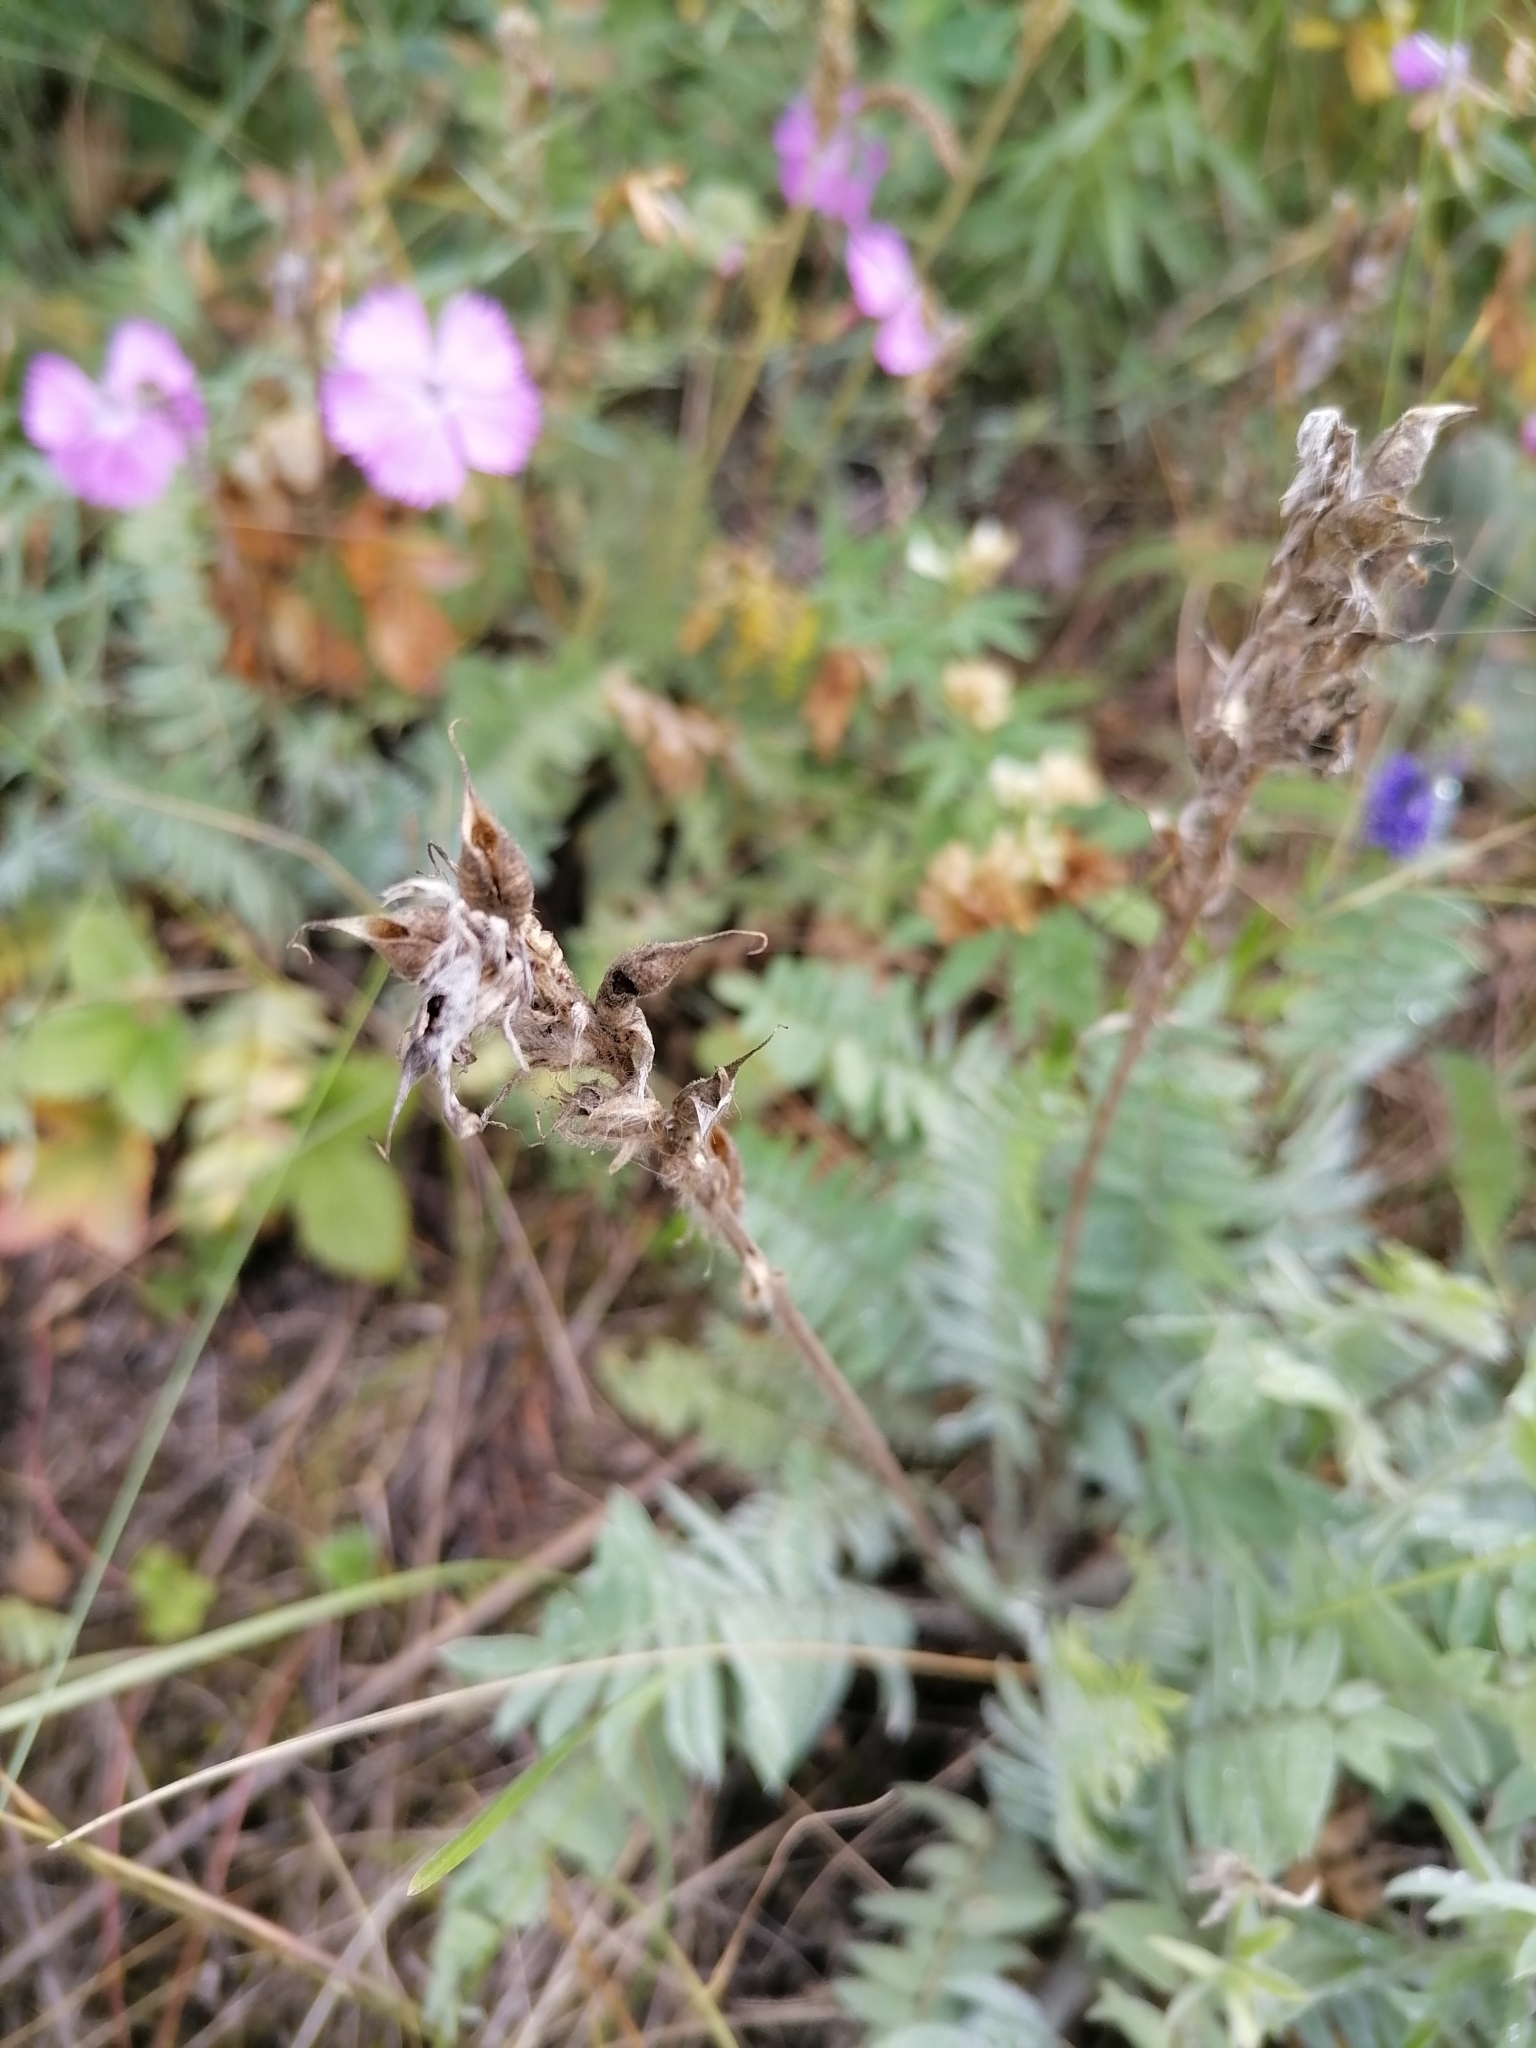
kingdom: Plantae
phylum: Tracheophyta
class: Magnoliopsida
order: Fabales
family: Fabaceae
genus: Oxytropis
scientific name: Oxytropis campanulata
